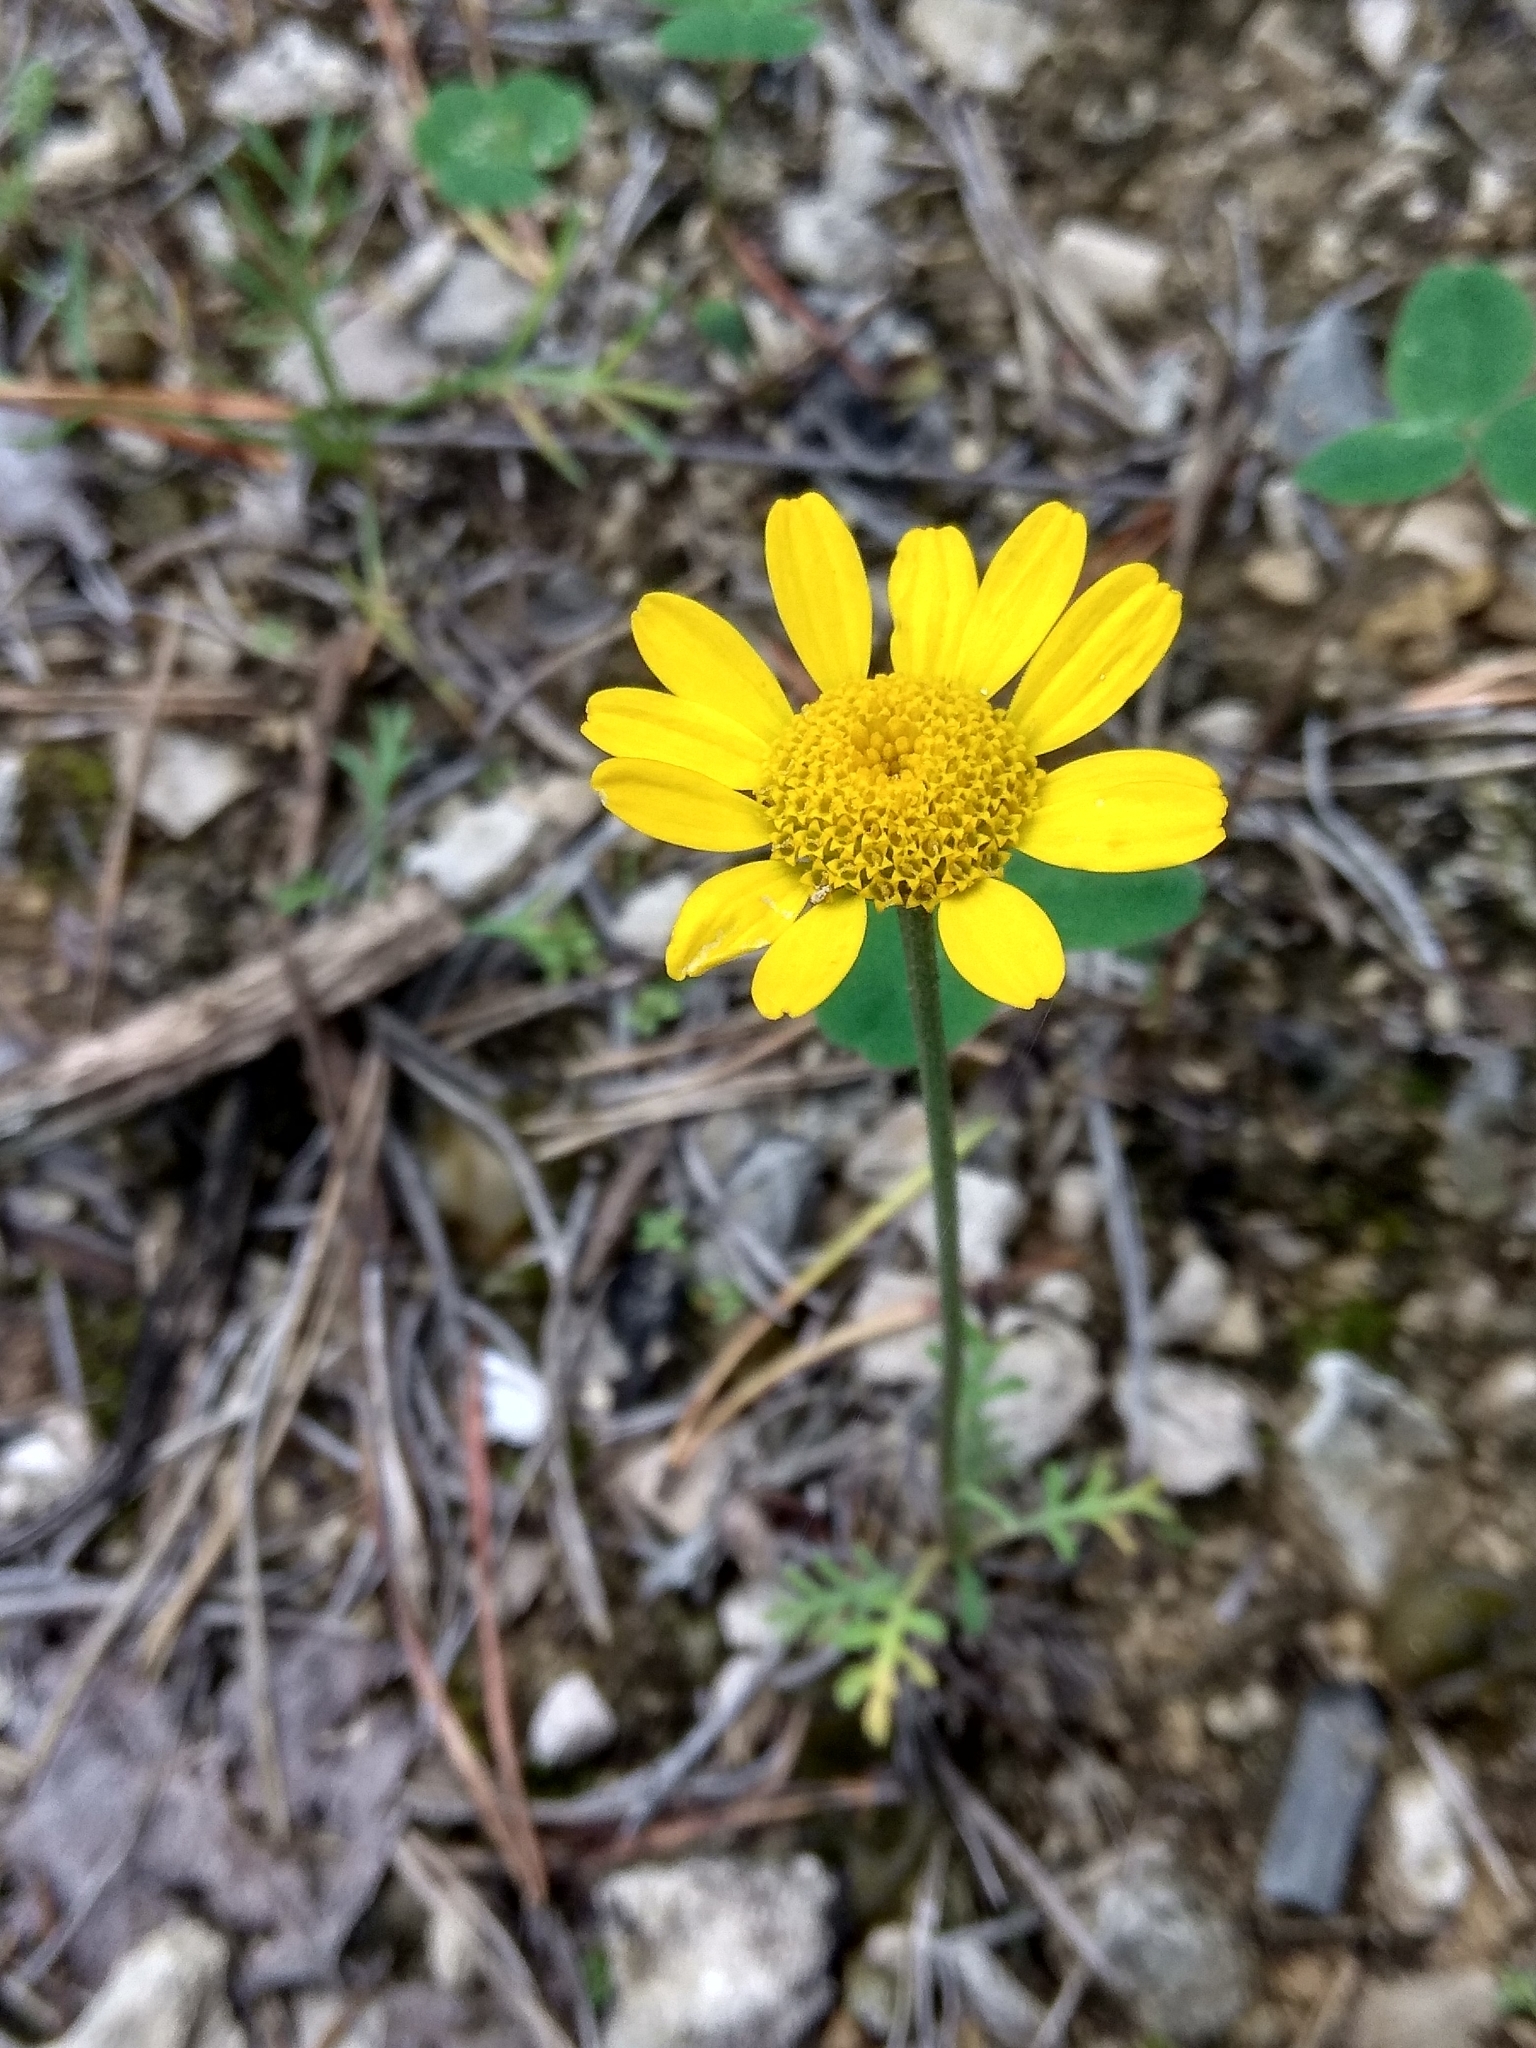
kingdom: Plantae
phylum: Tracheophyta
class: Magnoliopsida
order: Asterales
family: Asteraceae
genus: Cota
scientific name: Cota tinctoria
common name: Golden chamomile
